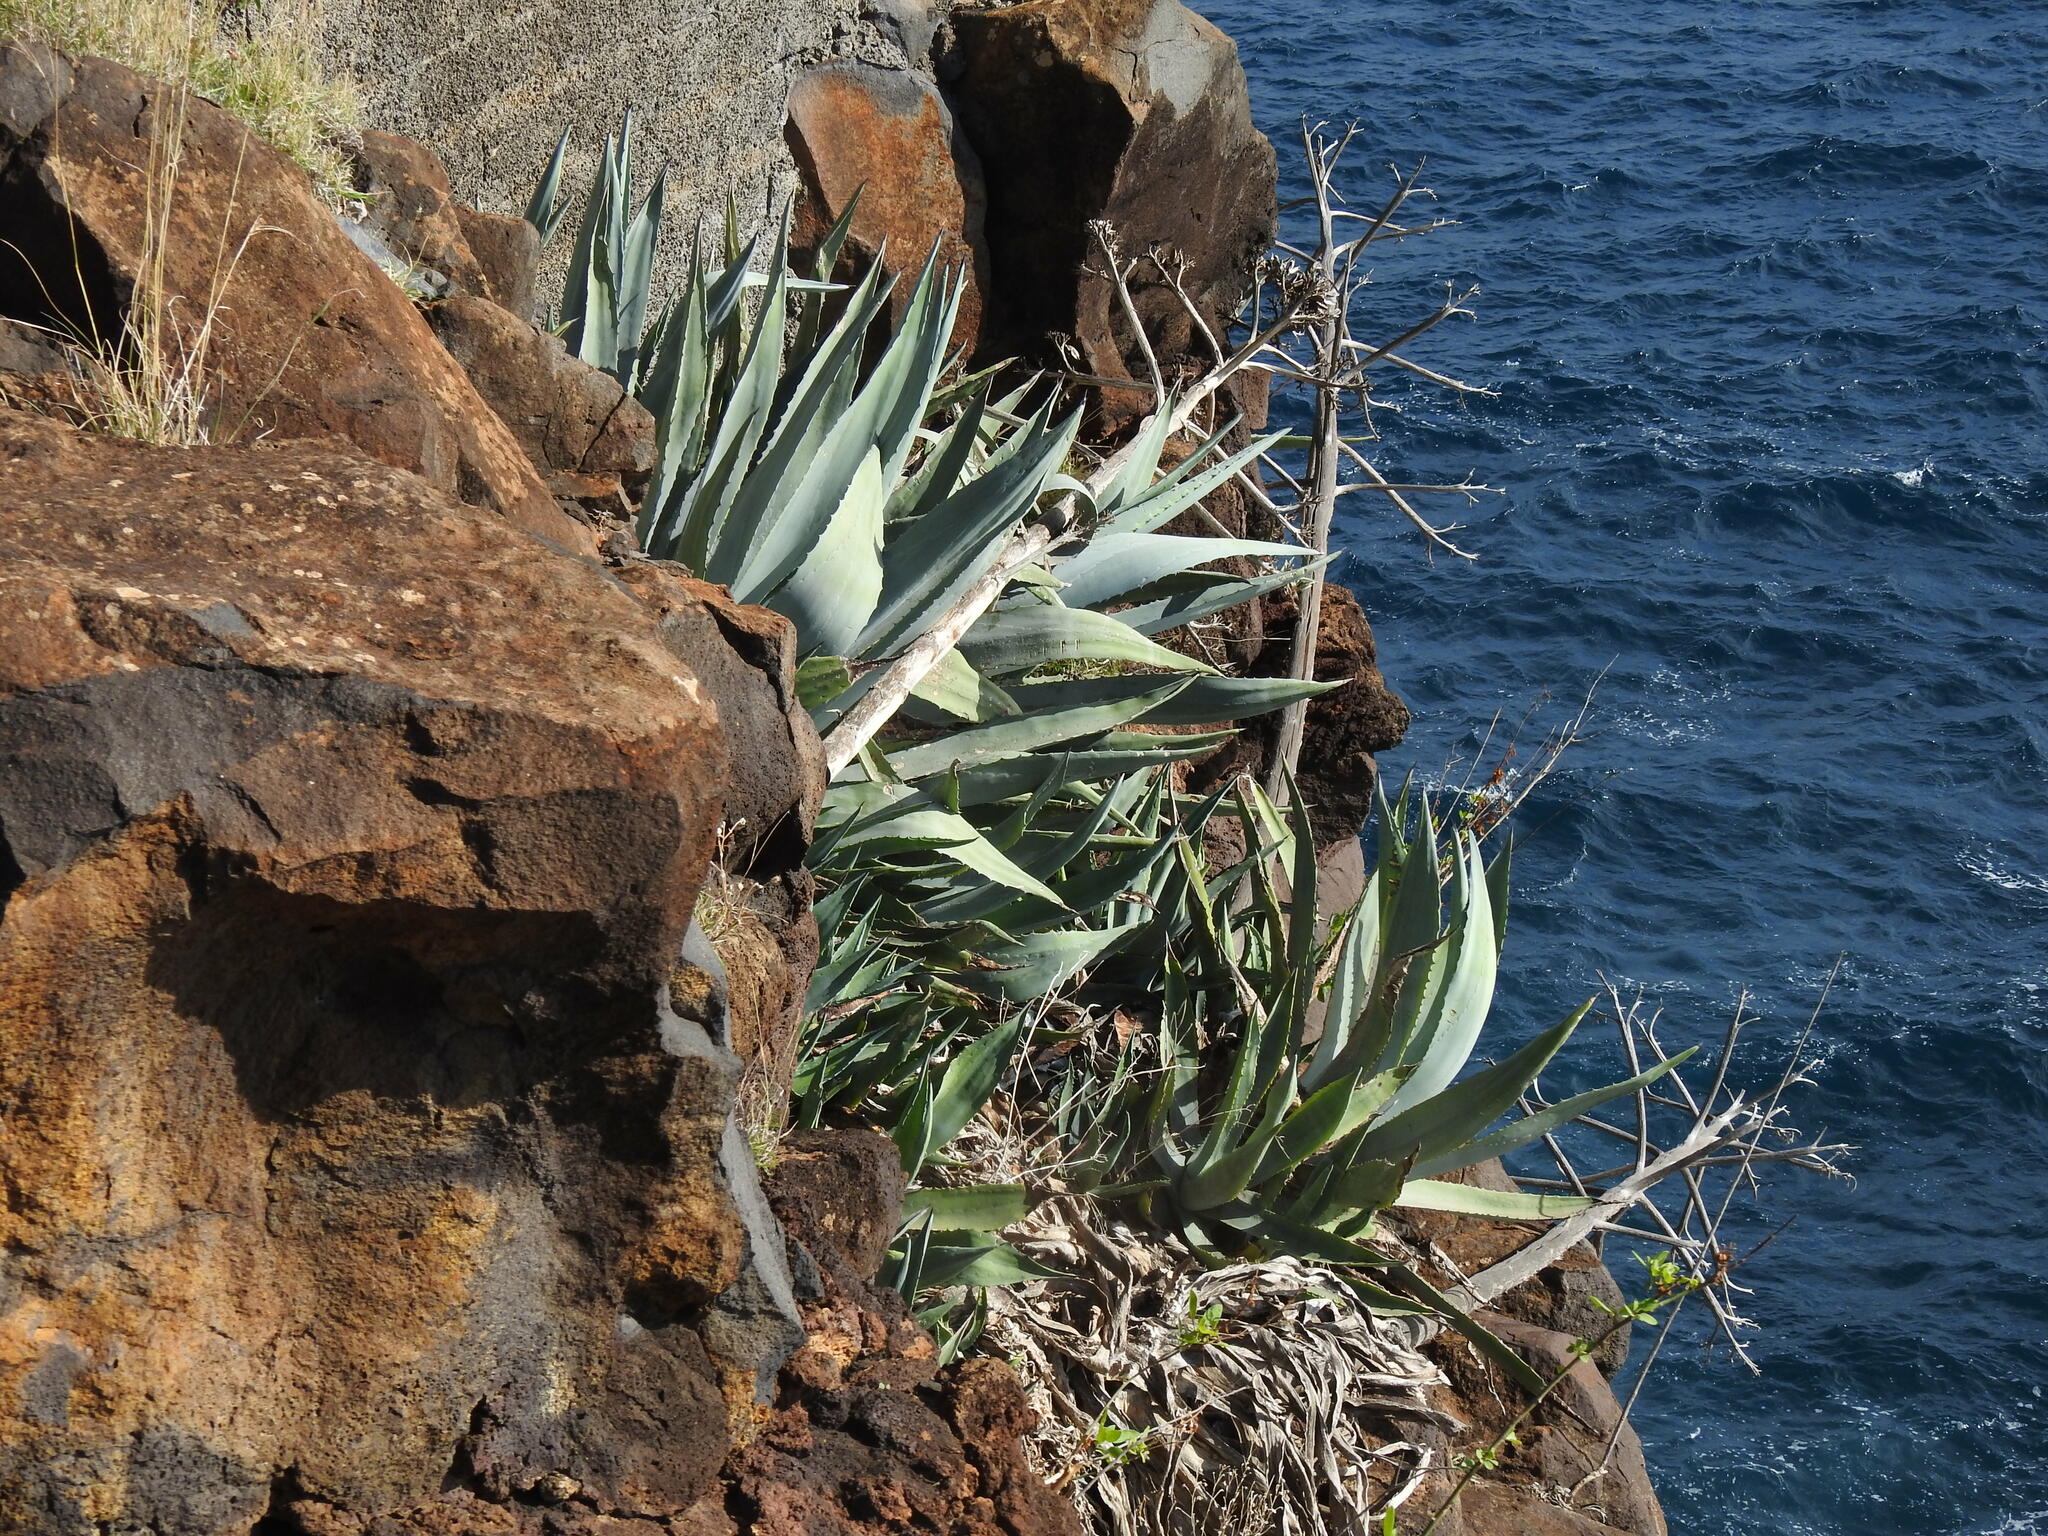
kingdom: Plantae
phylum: Tracheophyta
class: Liliopsida
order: Asparagales
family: Asparagaceae
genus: Agave
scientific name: Agave americana
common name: Centuryplant
